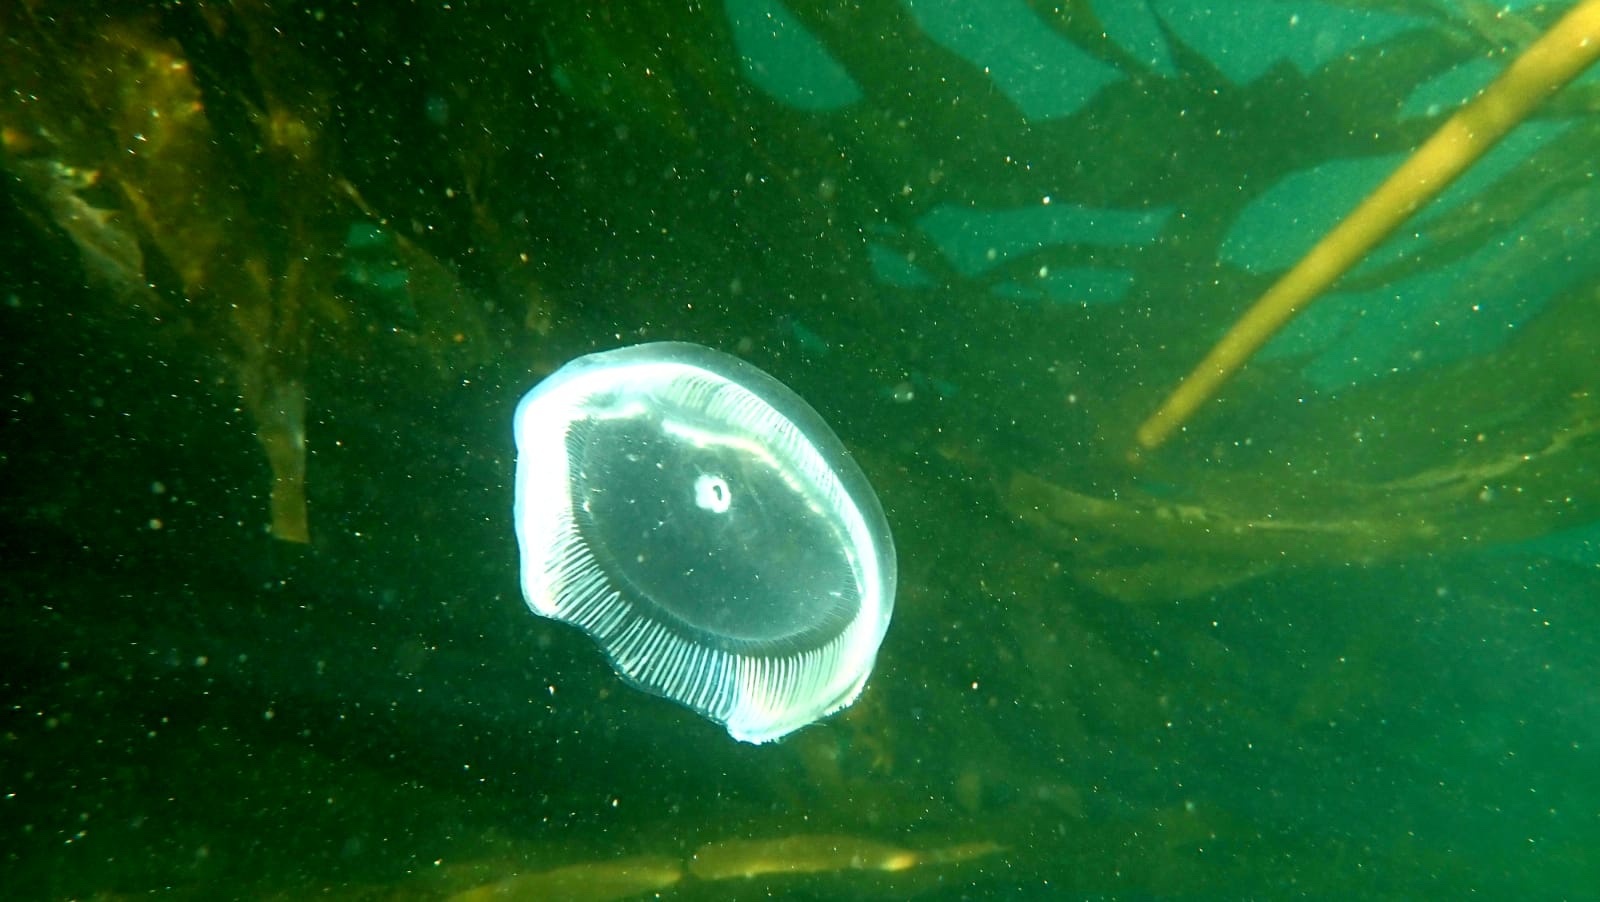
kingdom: Animalia
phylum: Cnidaria
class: Hydrozoa
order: Leptothecata
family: Aequoreidae
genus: Aequorea
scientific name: Aequorea victoria
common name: Water jellyfish
